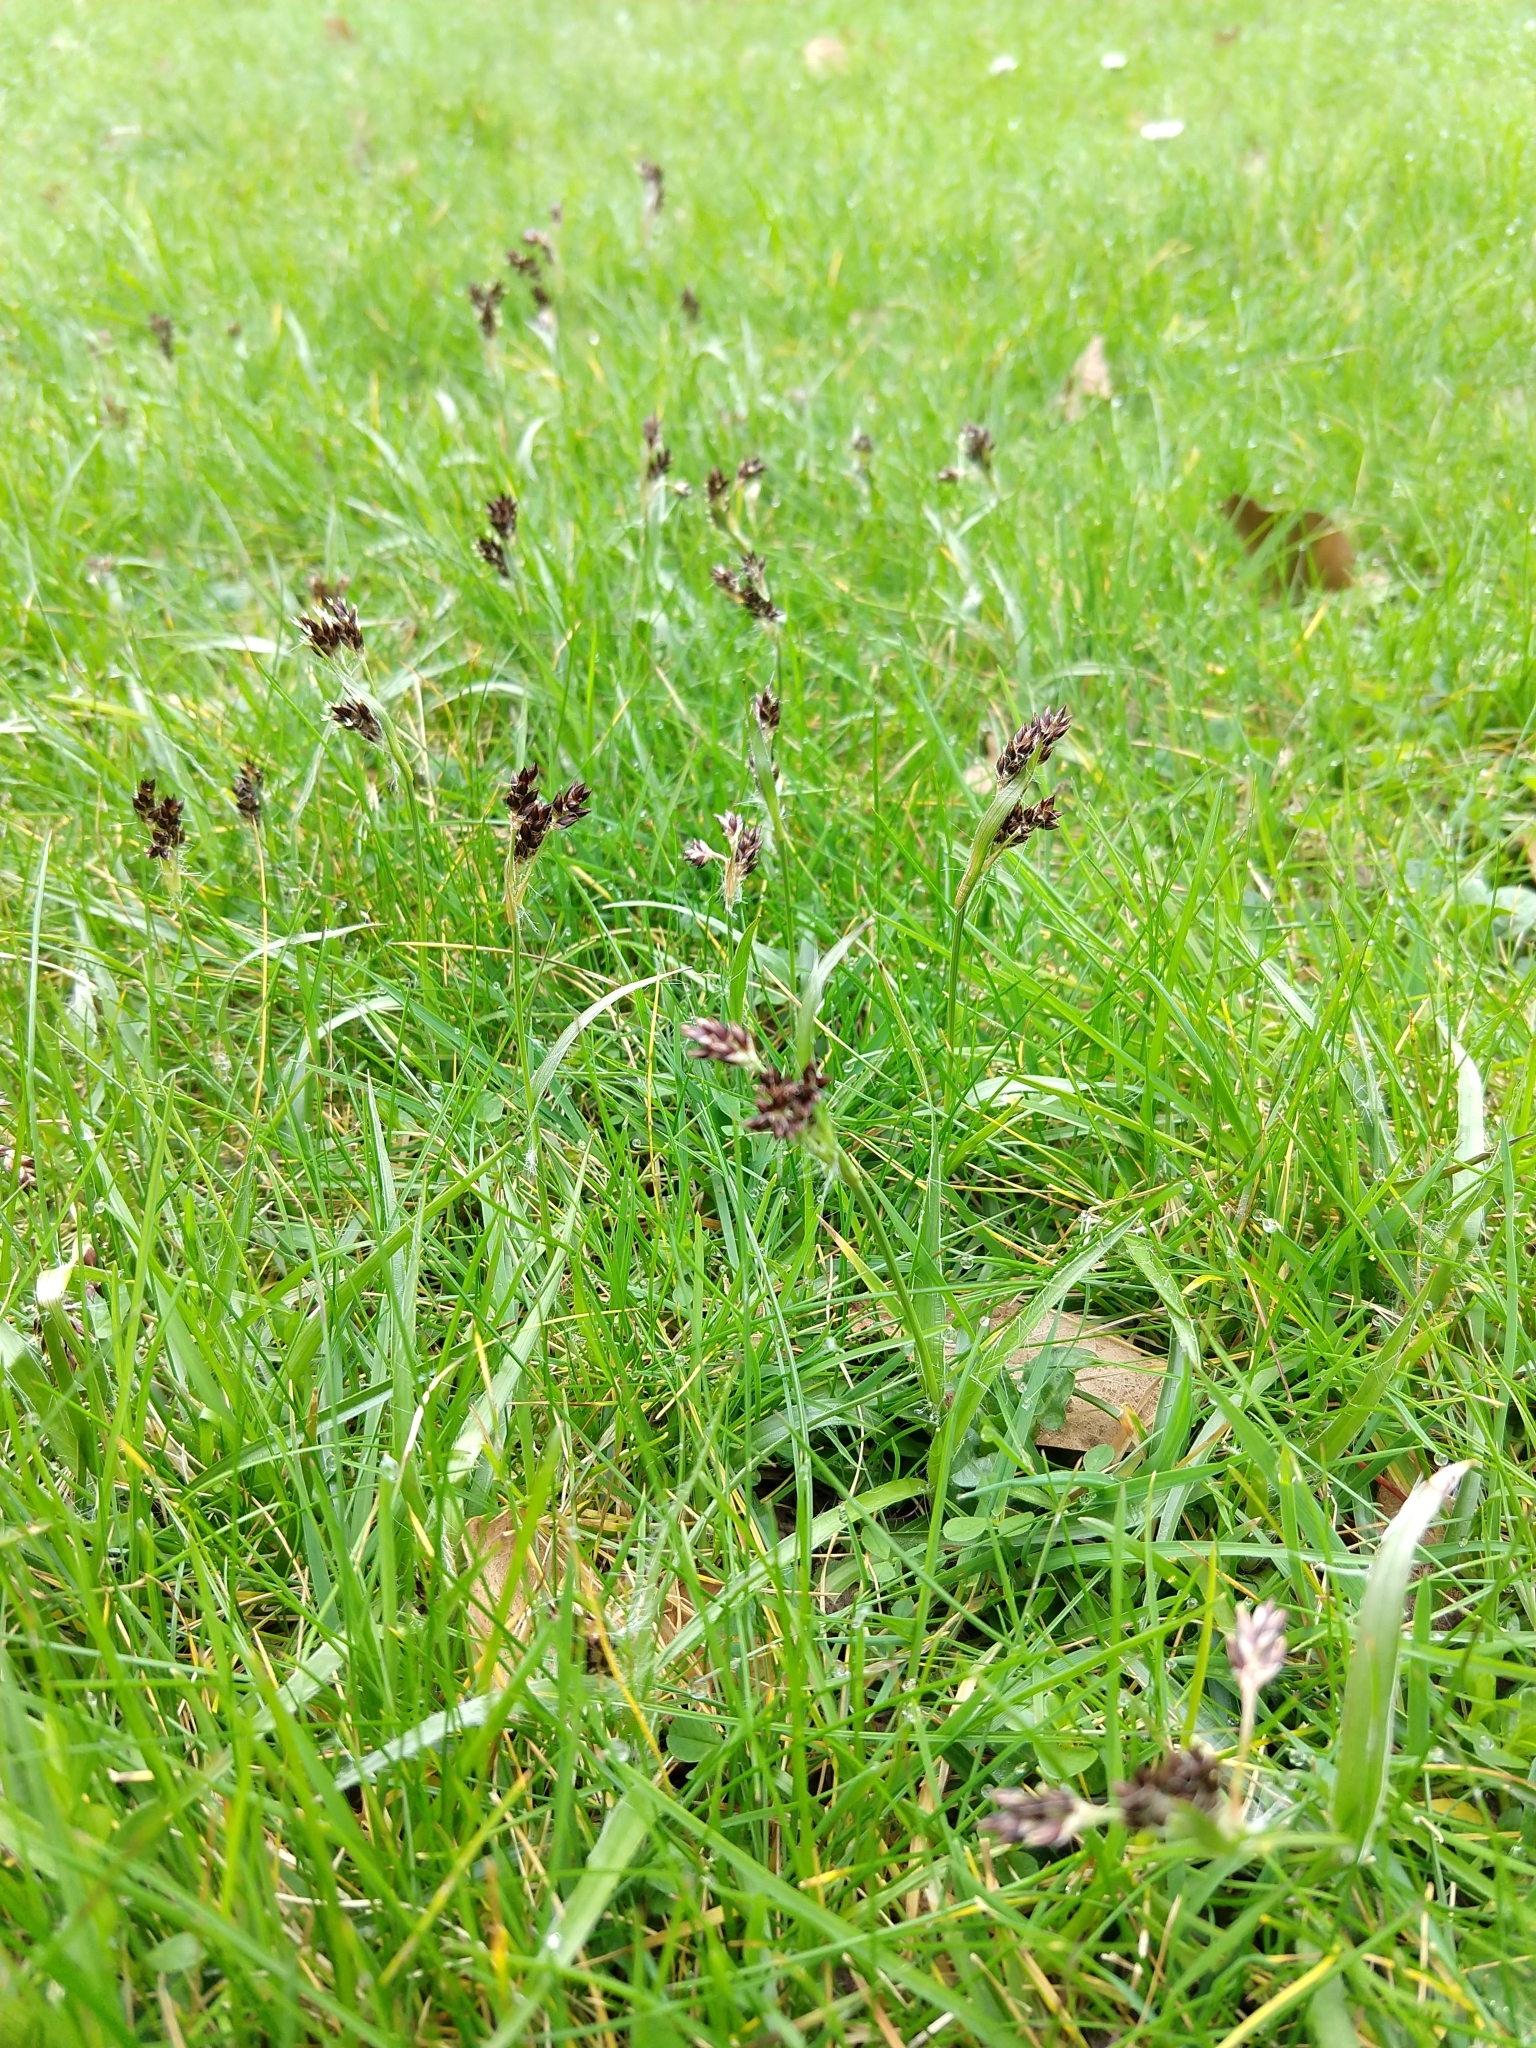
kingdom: Plantae
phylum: Tracheophyta
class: Liliopsida
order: Poales
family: Juncaceae
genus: Luzula
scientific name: Luzula campestris
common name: Field wood-rush
